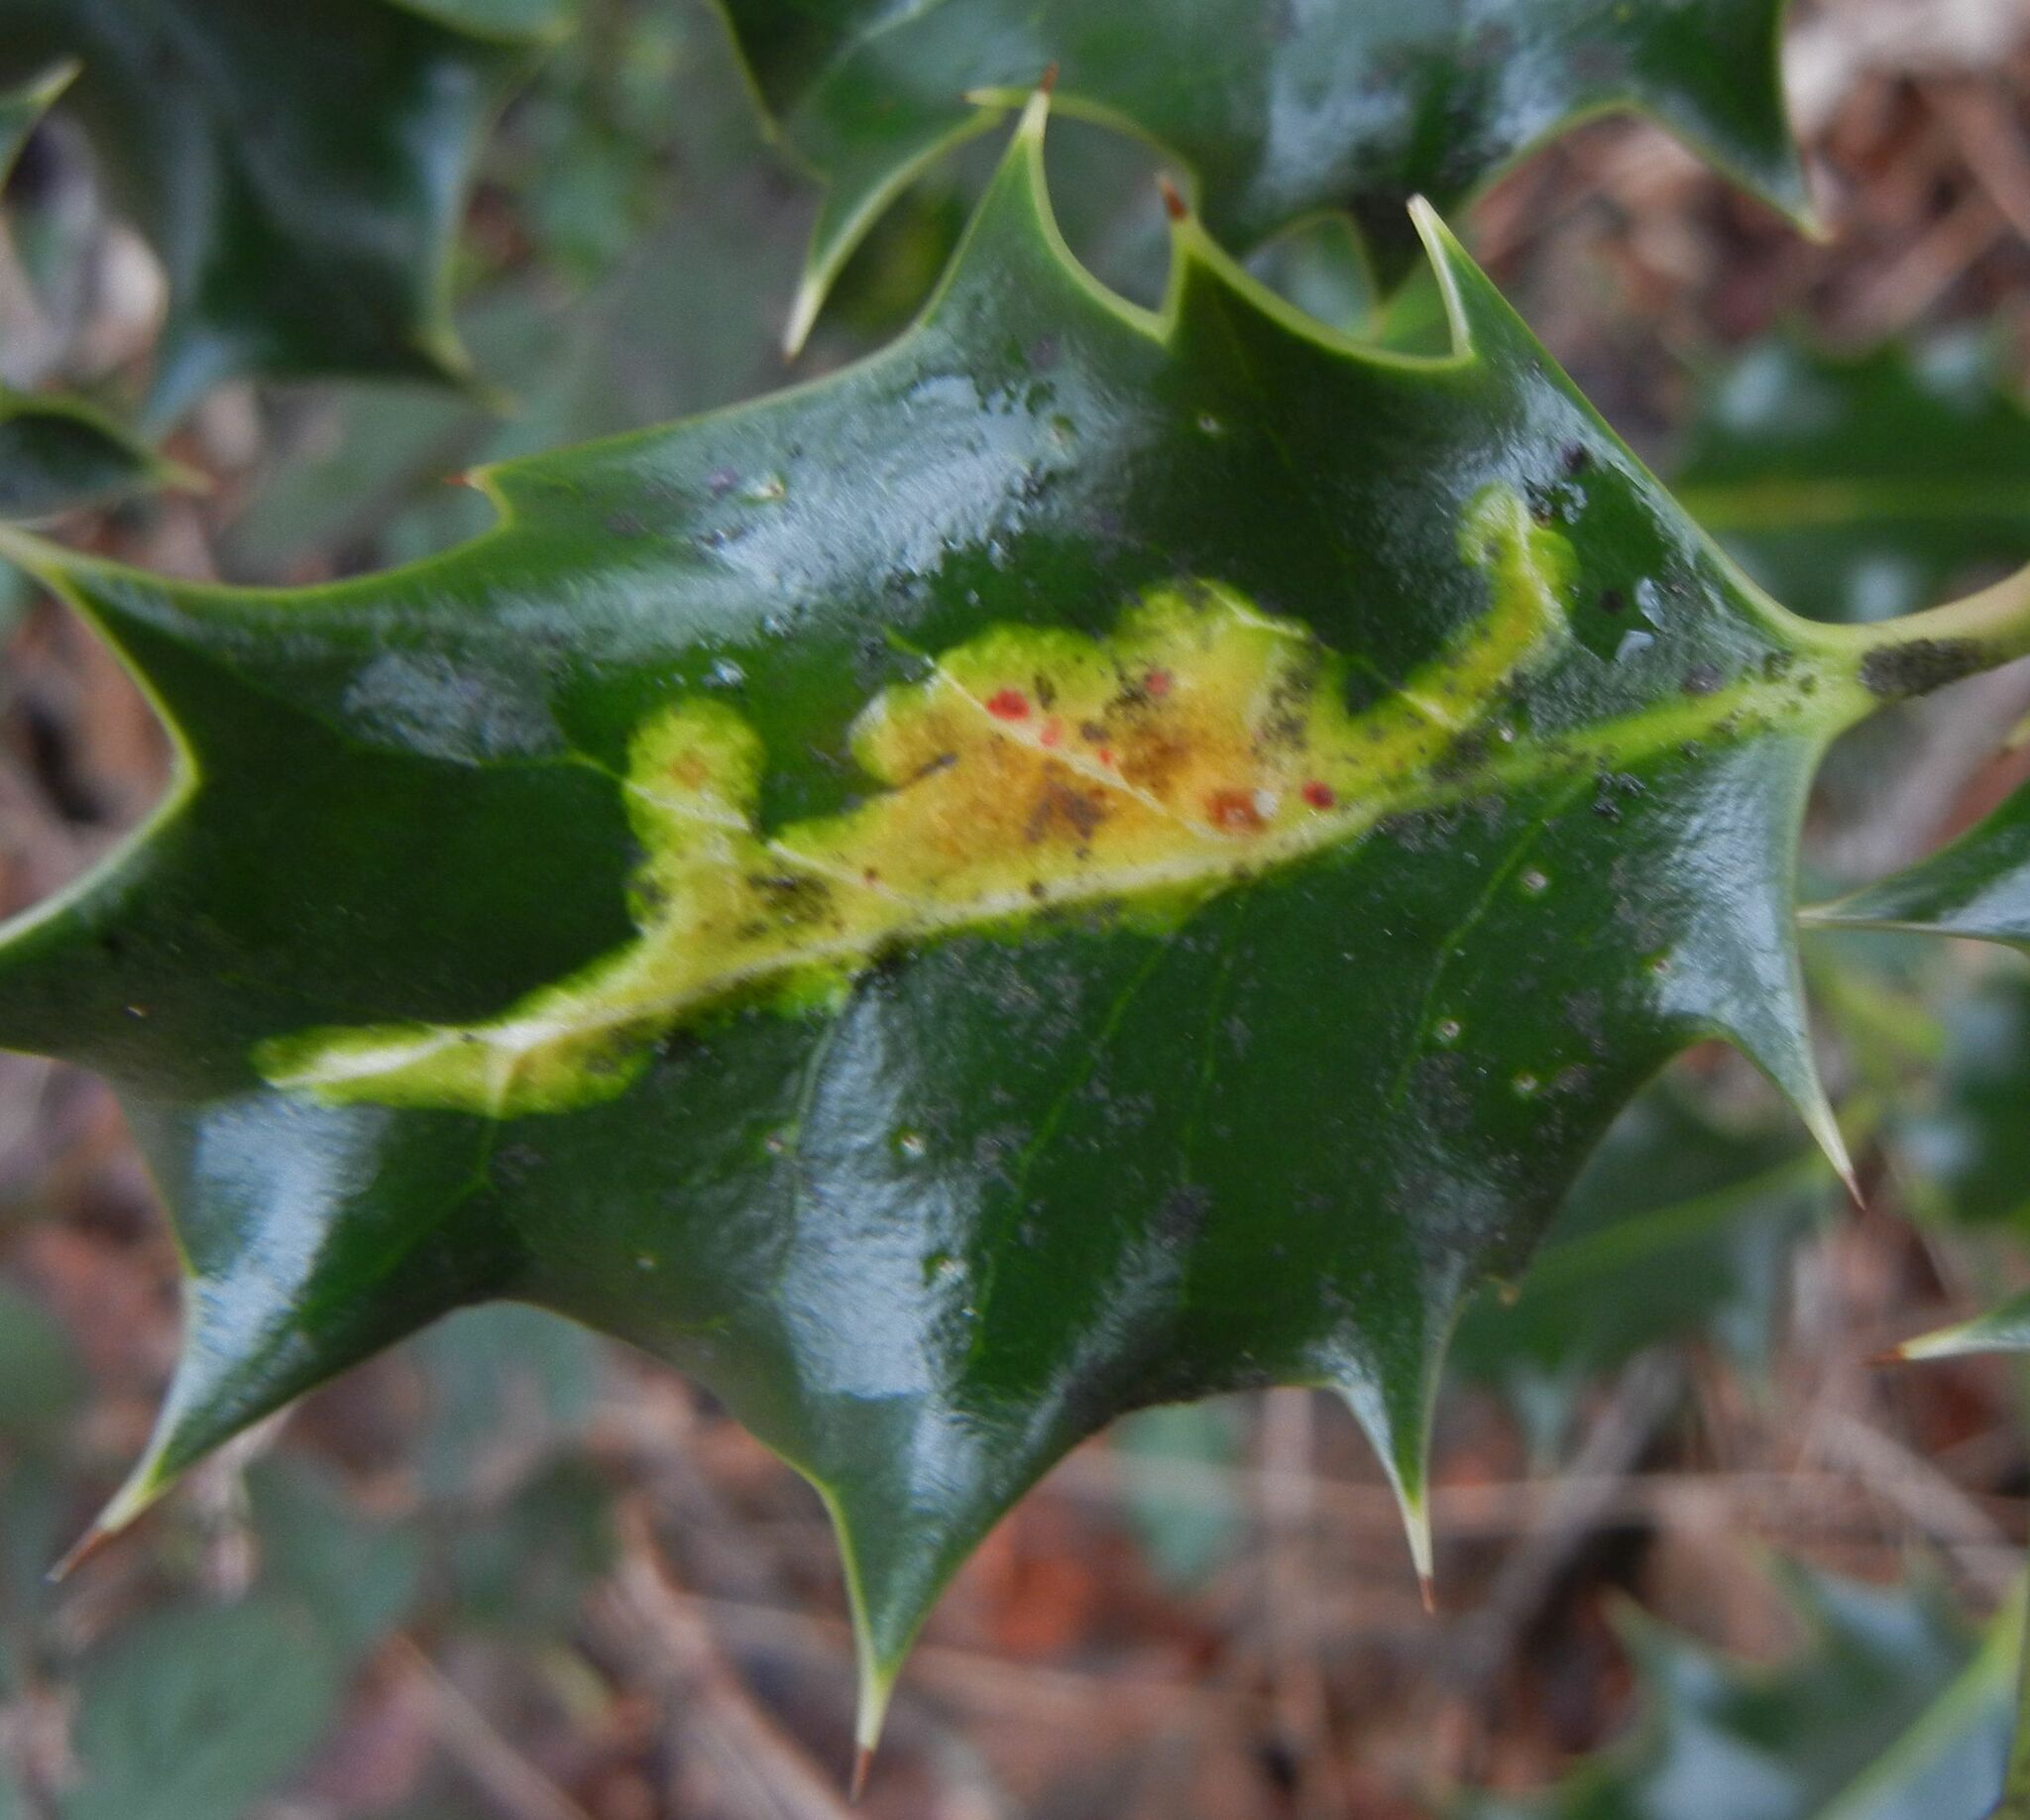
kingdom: Animalia
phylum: Arthropoda
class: Insecta
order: Diptera
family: Agromyzidae
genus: Phytomyza
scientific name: Phytomyza ilicis
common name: Holly leafminer
